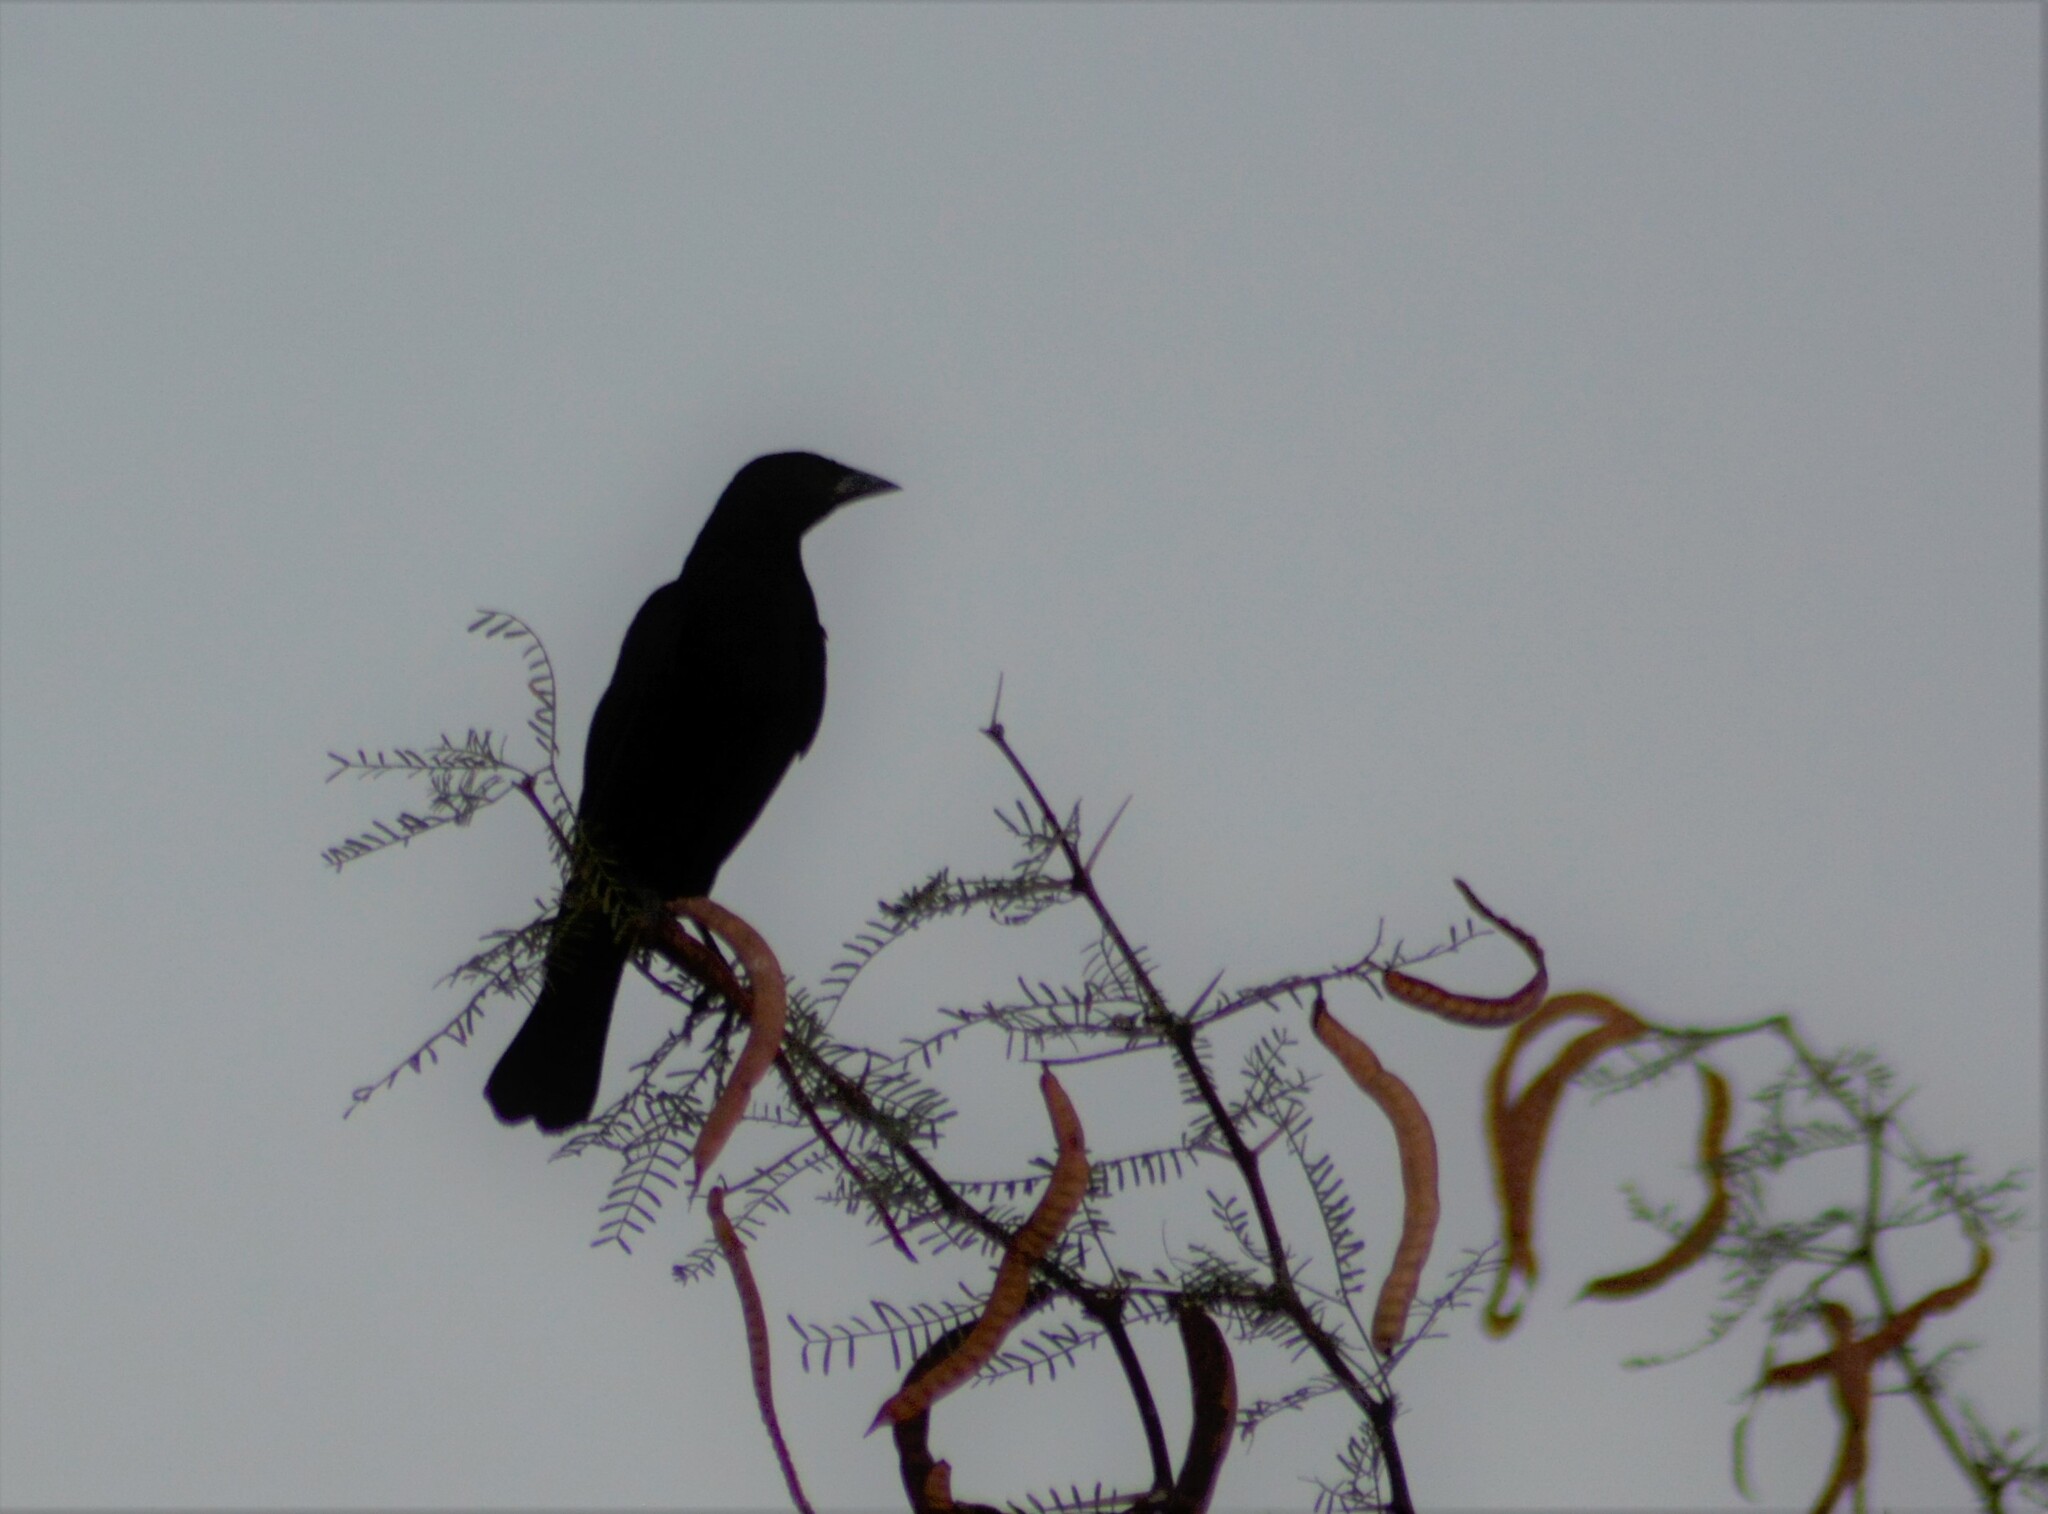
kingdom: Animalia
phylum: Chordata
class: Aves
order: Passeriformes
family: Icteridae
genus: Molothrus
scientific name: Molothrus bonariensis
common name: Shiny cowbird
